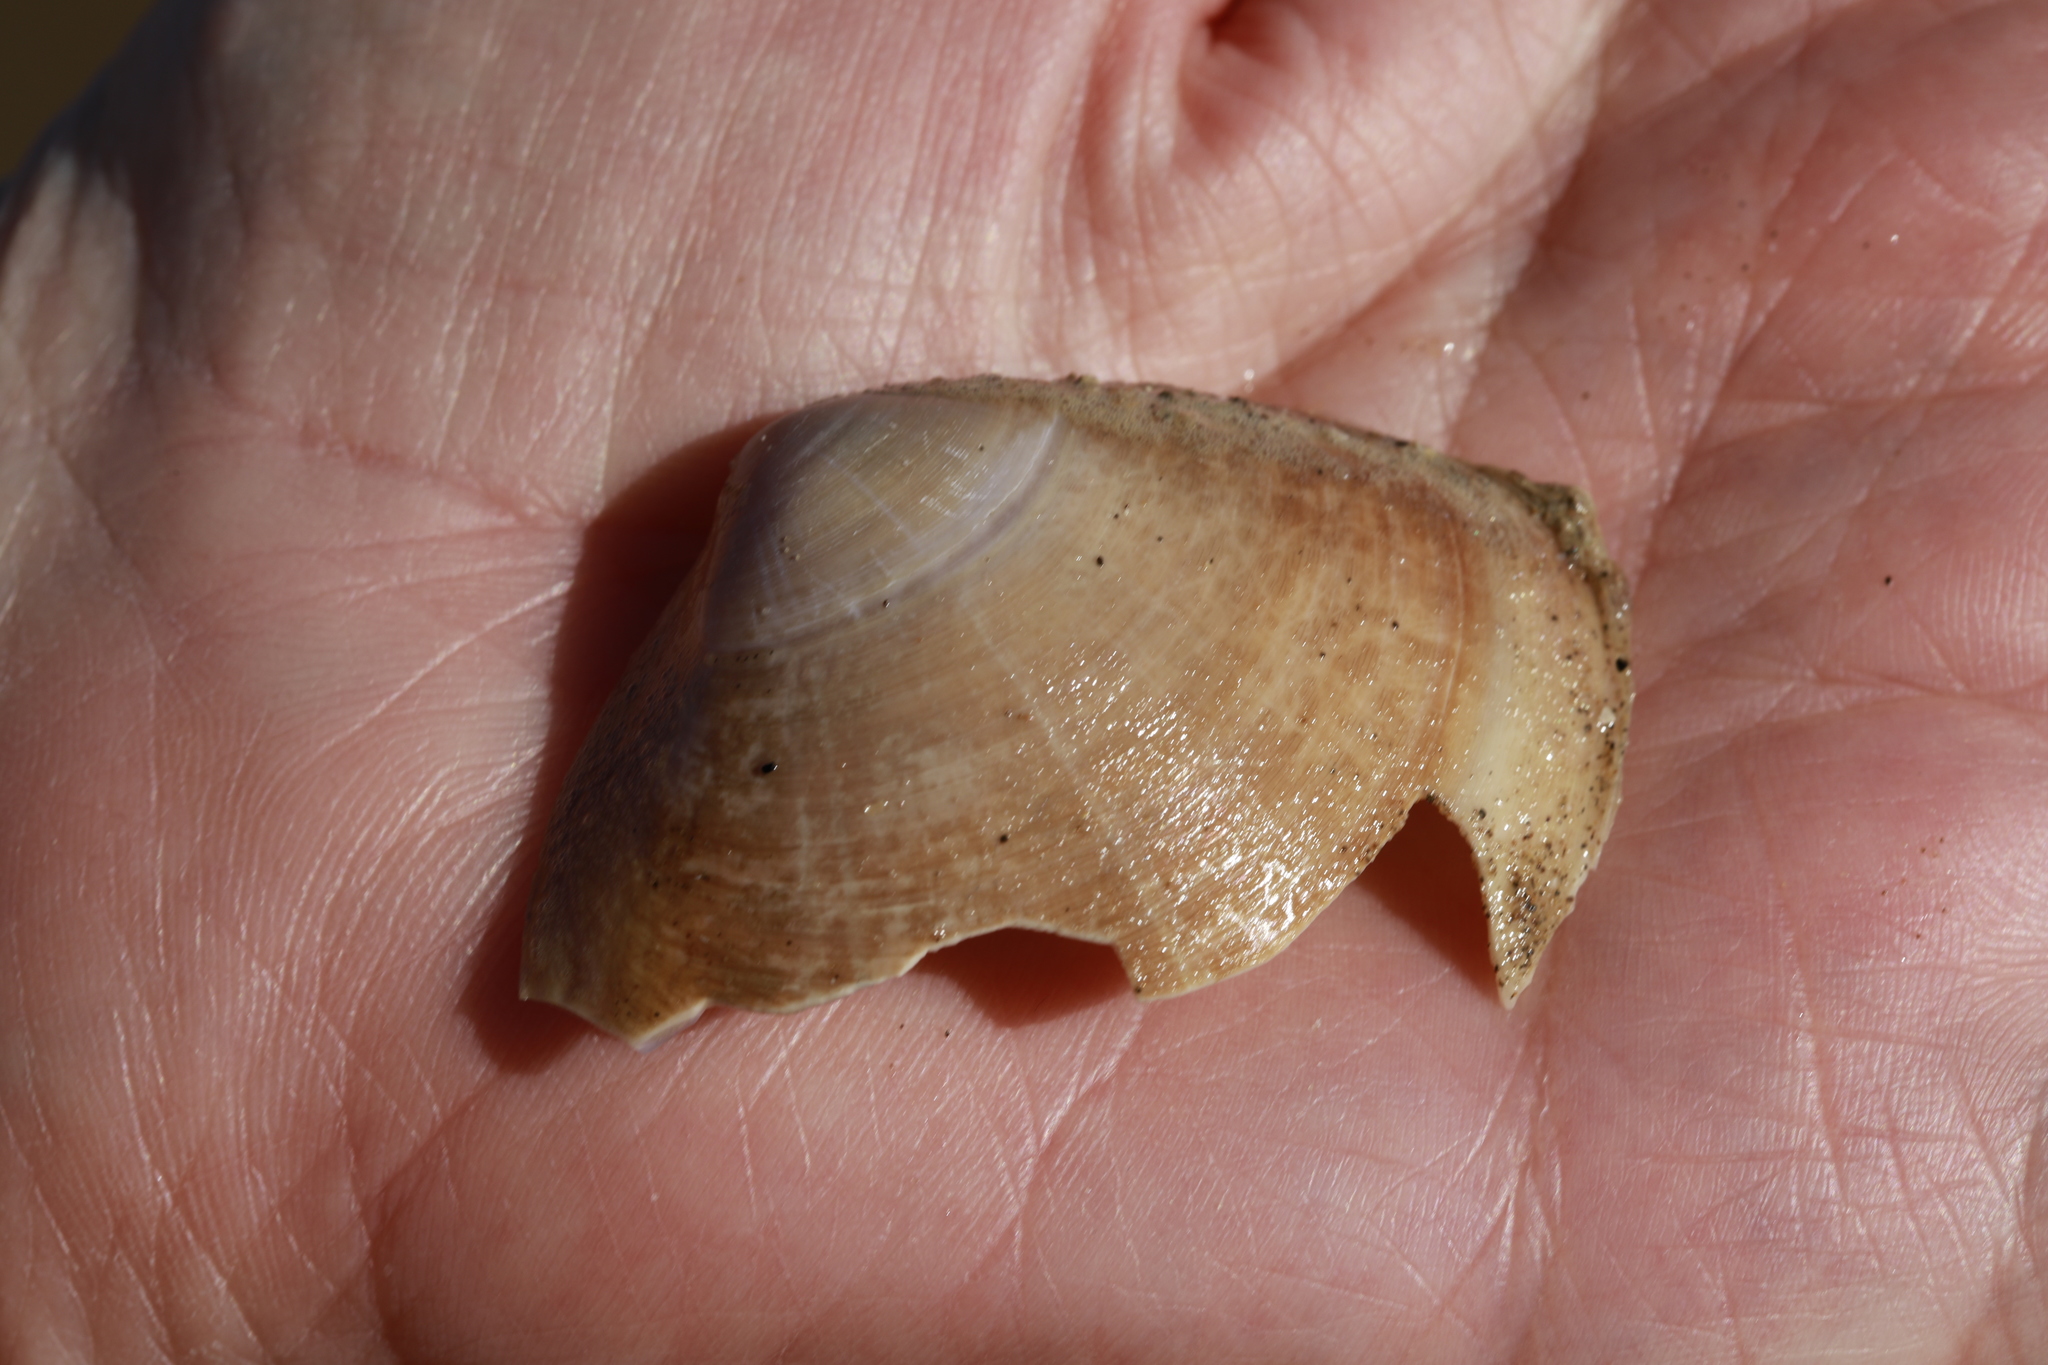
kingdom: Animalia
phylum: Mollusca
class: Bivalvia
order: Venerida
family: Mactridae
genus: Mactra
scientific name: Mactra stultorum
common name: Rayed trough shell
